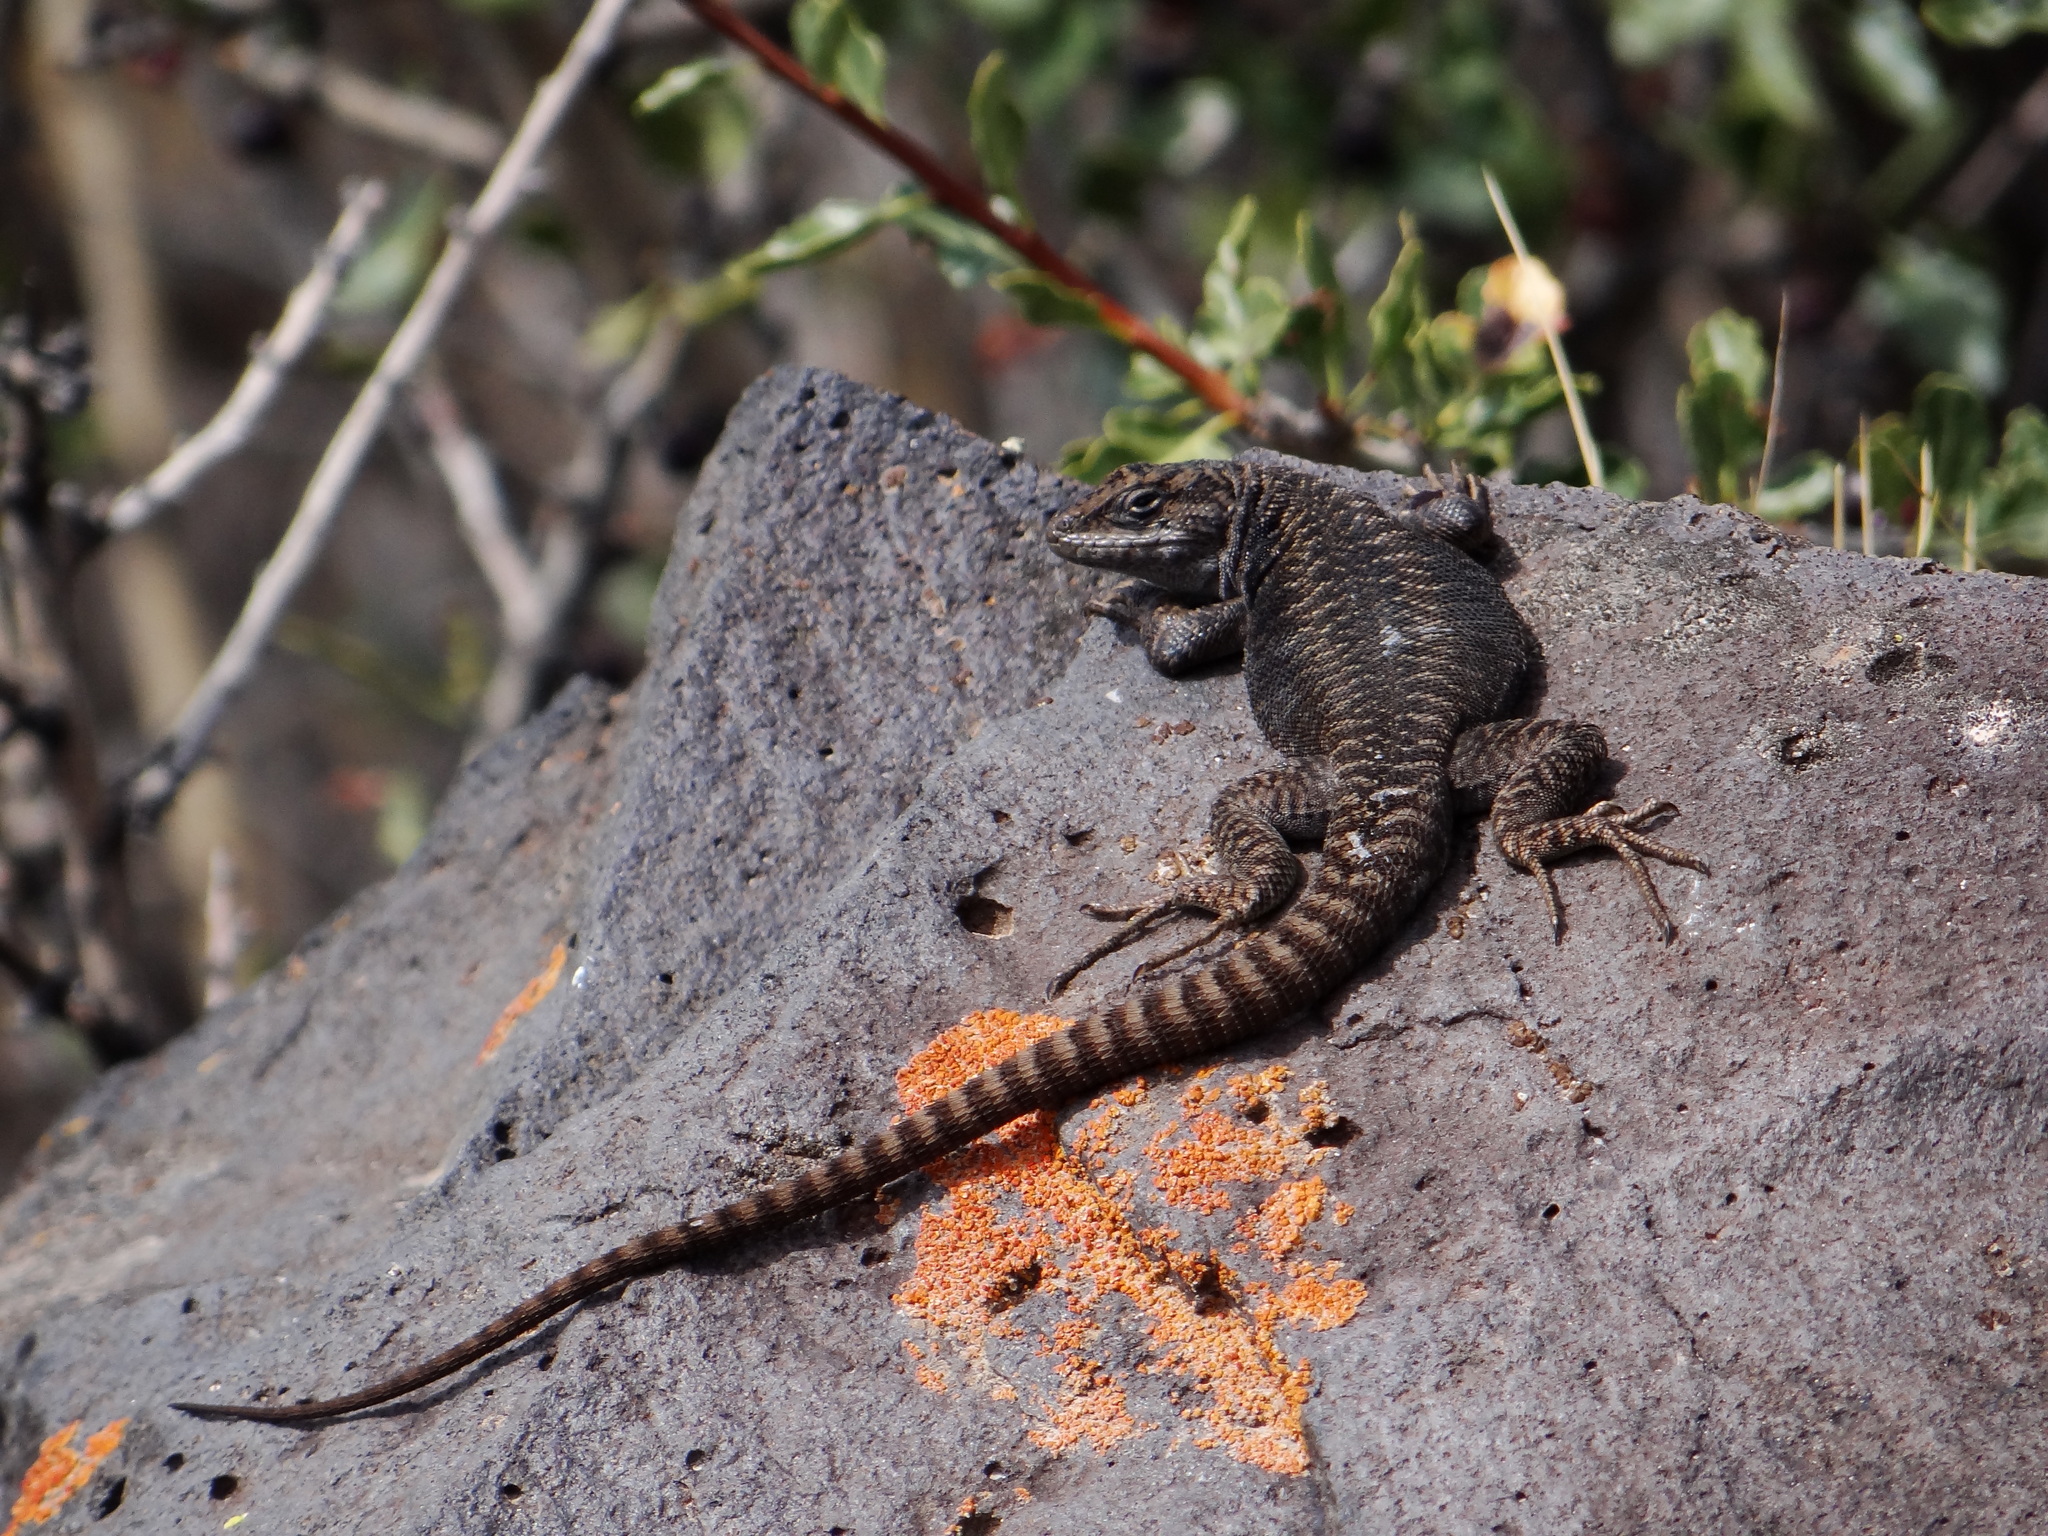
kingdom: Animalia
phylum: Chordata
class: Squamata
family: Liolaemidae
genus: Liolaemus
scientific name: Liolaemus elongatus
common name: Elongate tree iguana
